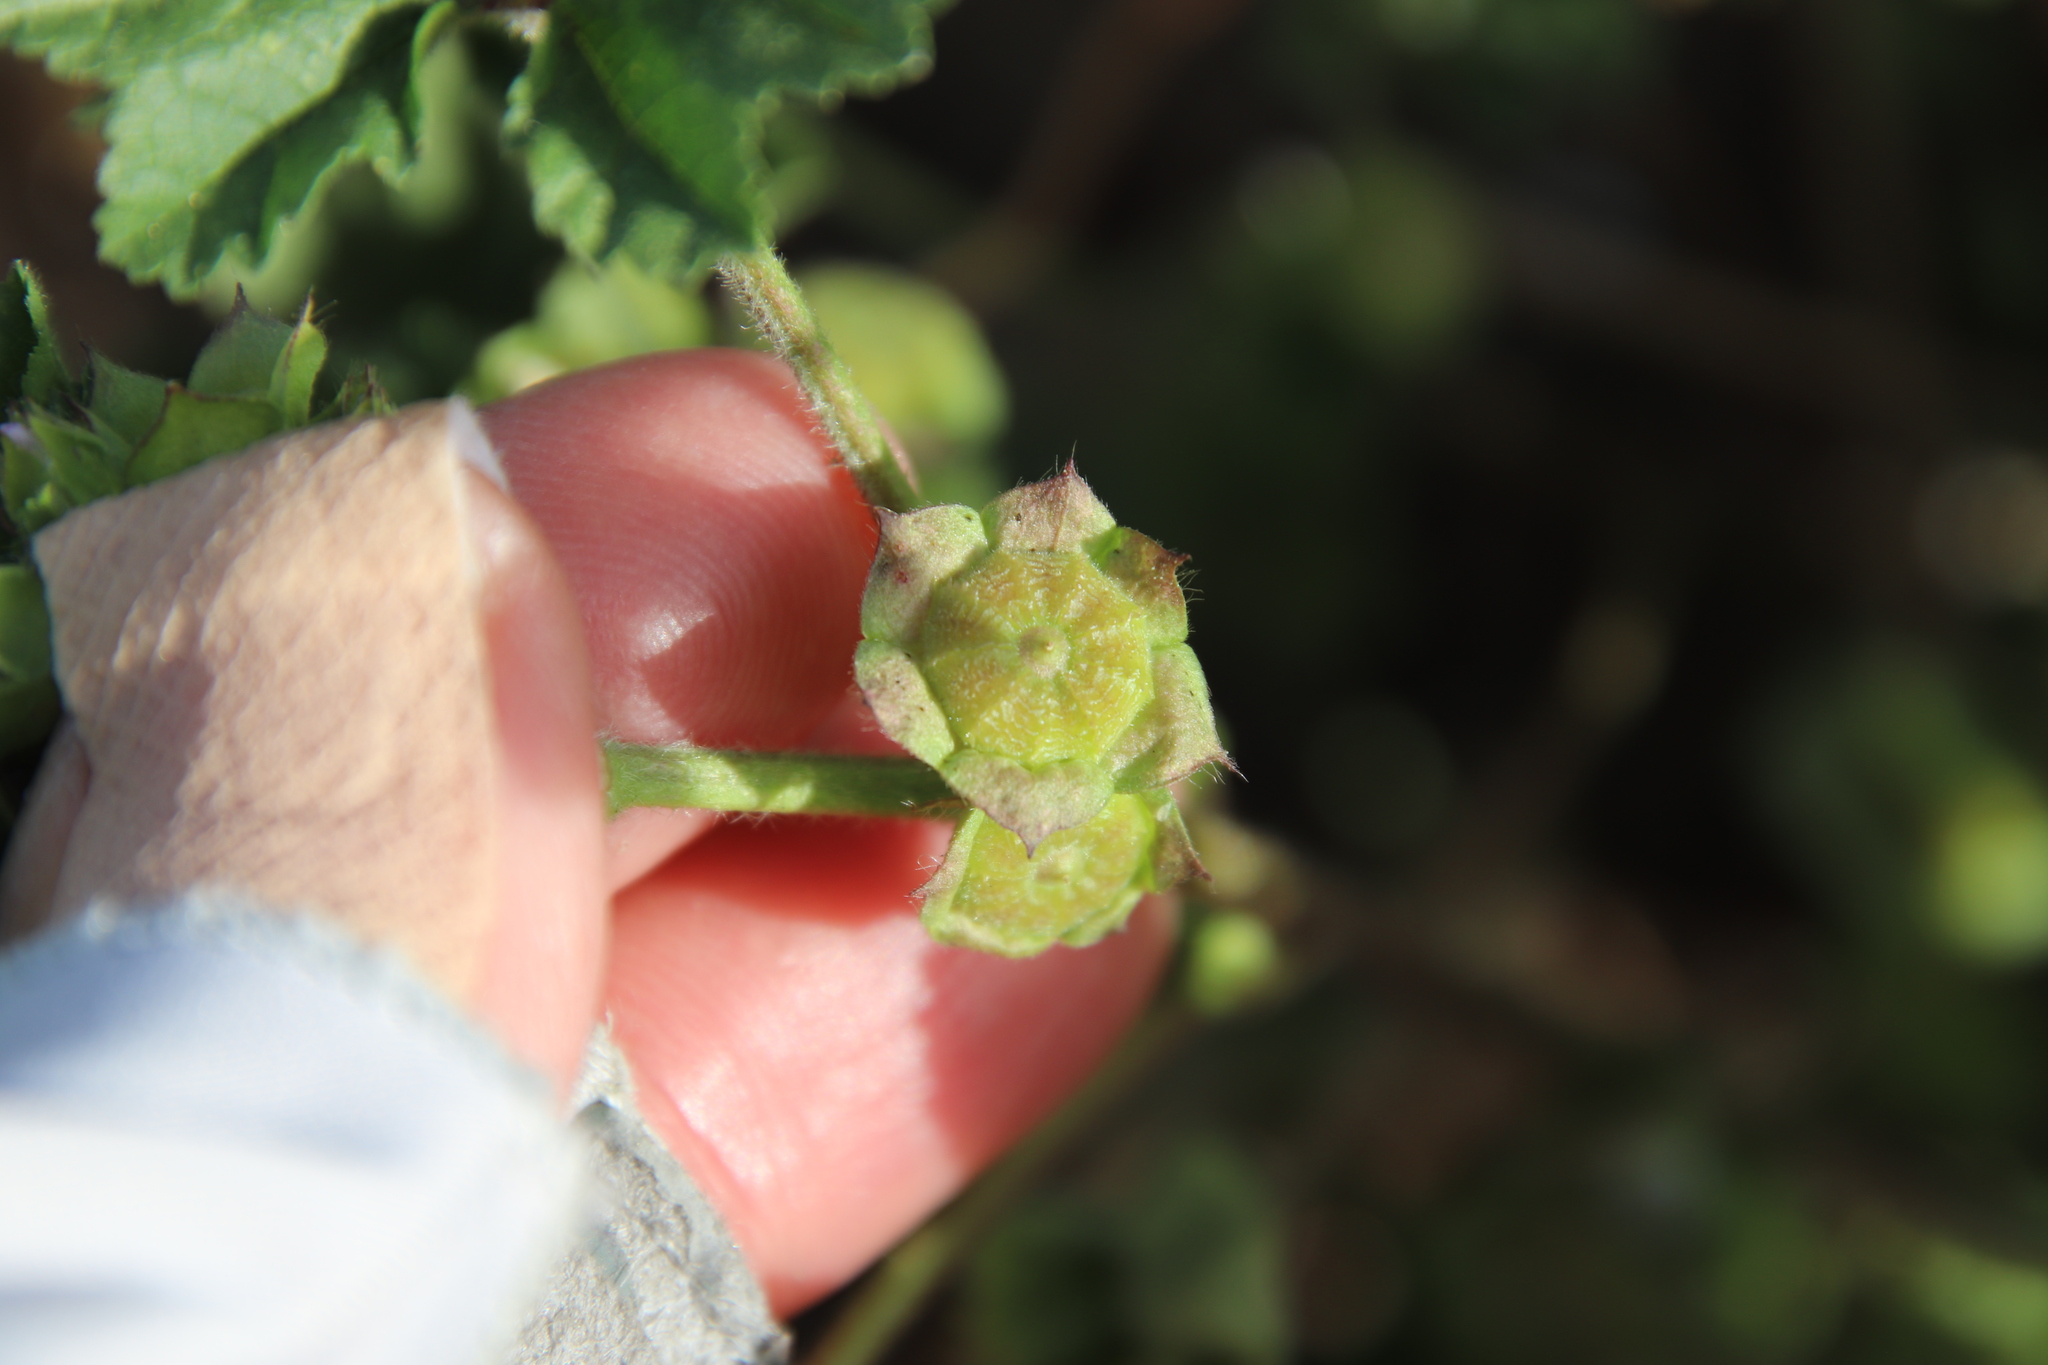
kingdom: Plantae
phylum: Tracheophyta
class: Magnoliopsida
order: Malvales
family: Malvaceae
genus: Malva
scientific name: Malva parviflora
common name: Least mallow
